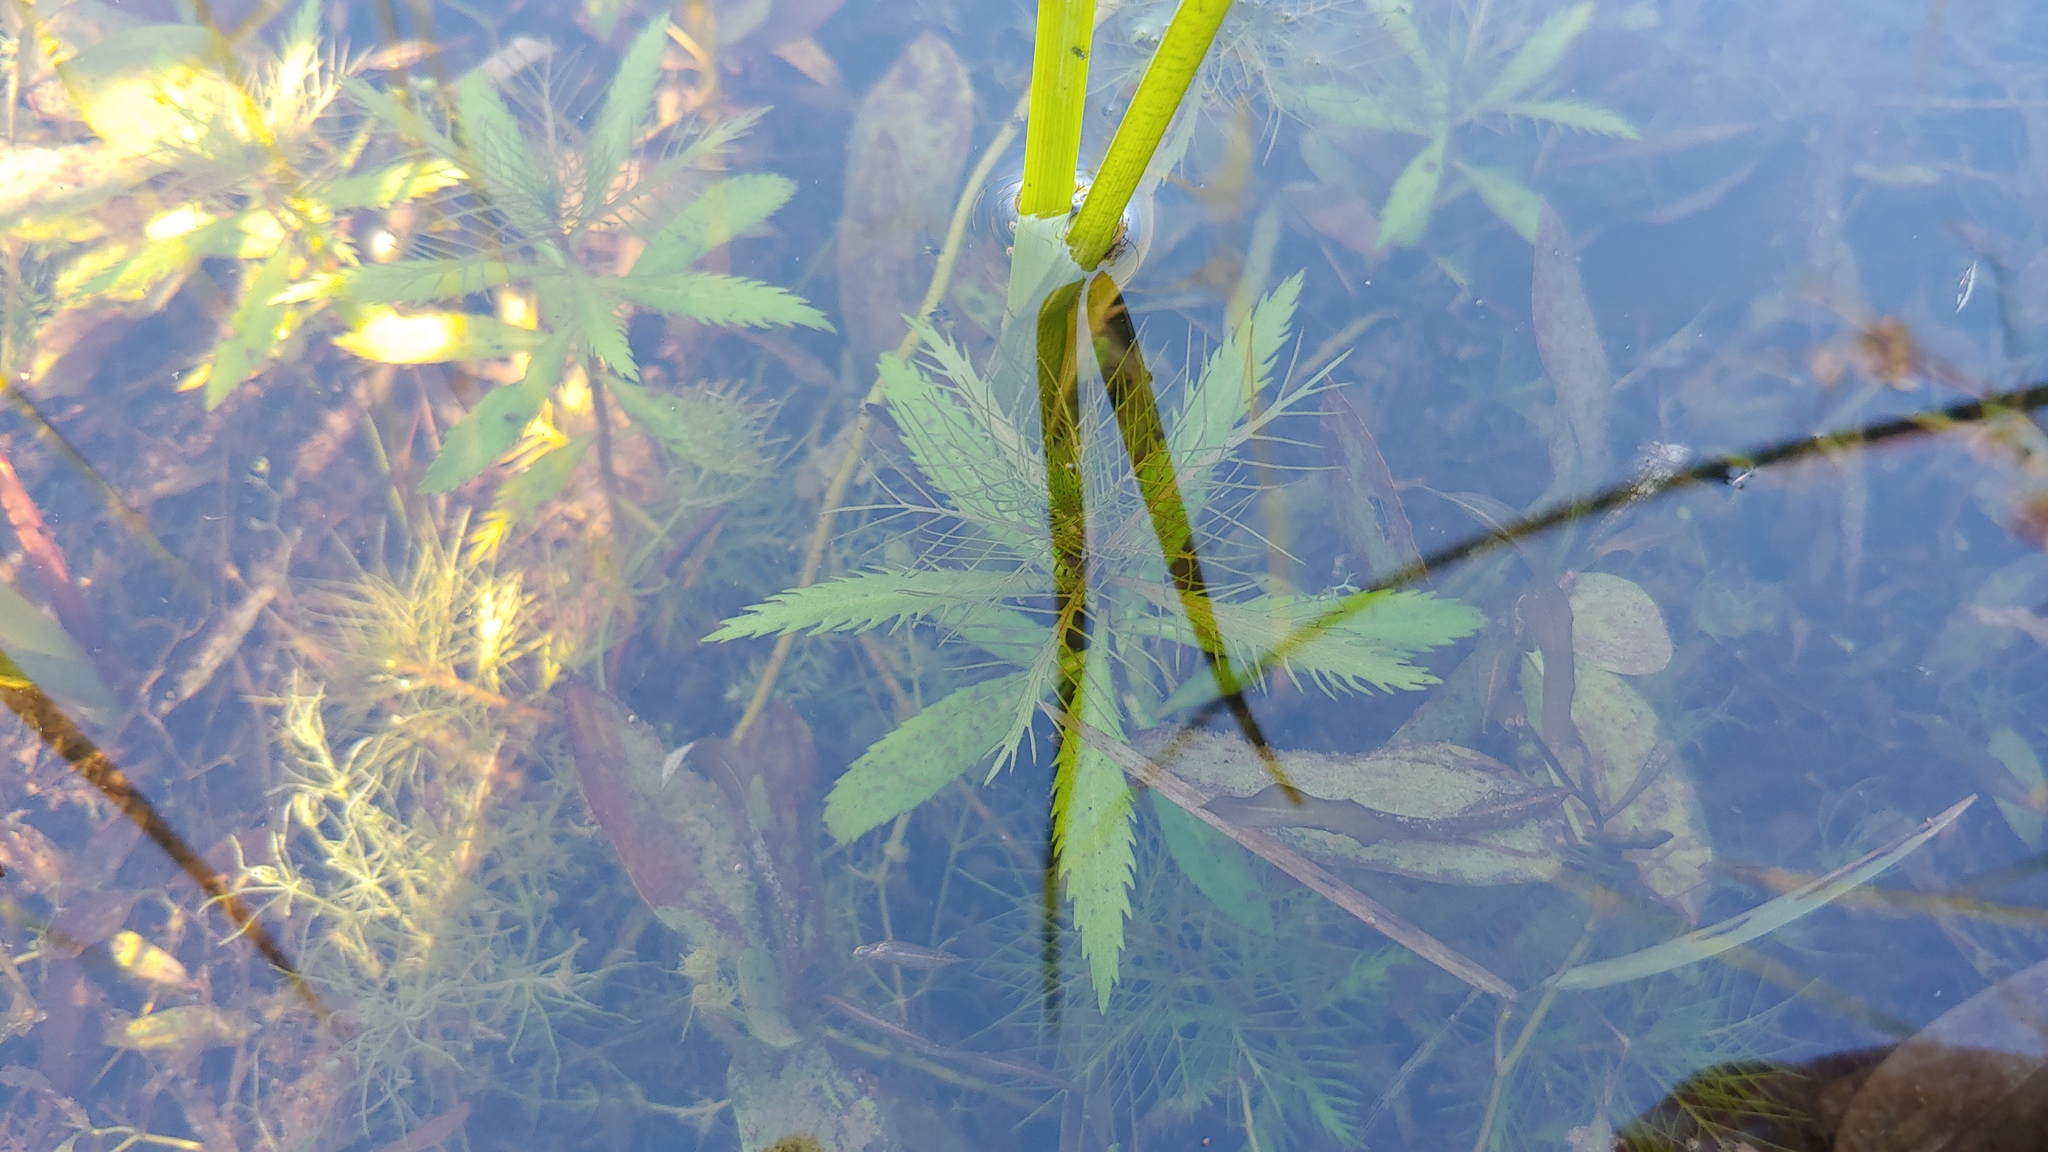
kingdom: Plantae
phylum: Tracheophyta
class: Magnoliopsida
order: Saxifragales
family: Haloragaceae
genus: Proserpinaca
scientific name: Proserpinaca palustris
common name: Marsh mermaidweed
